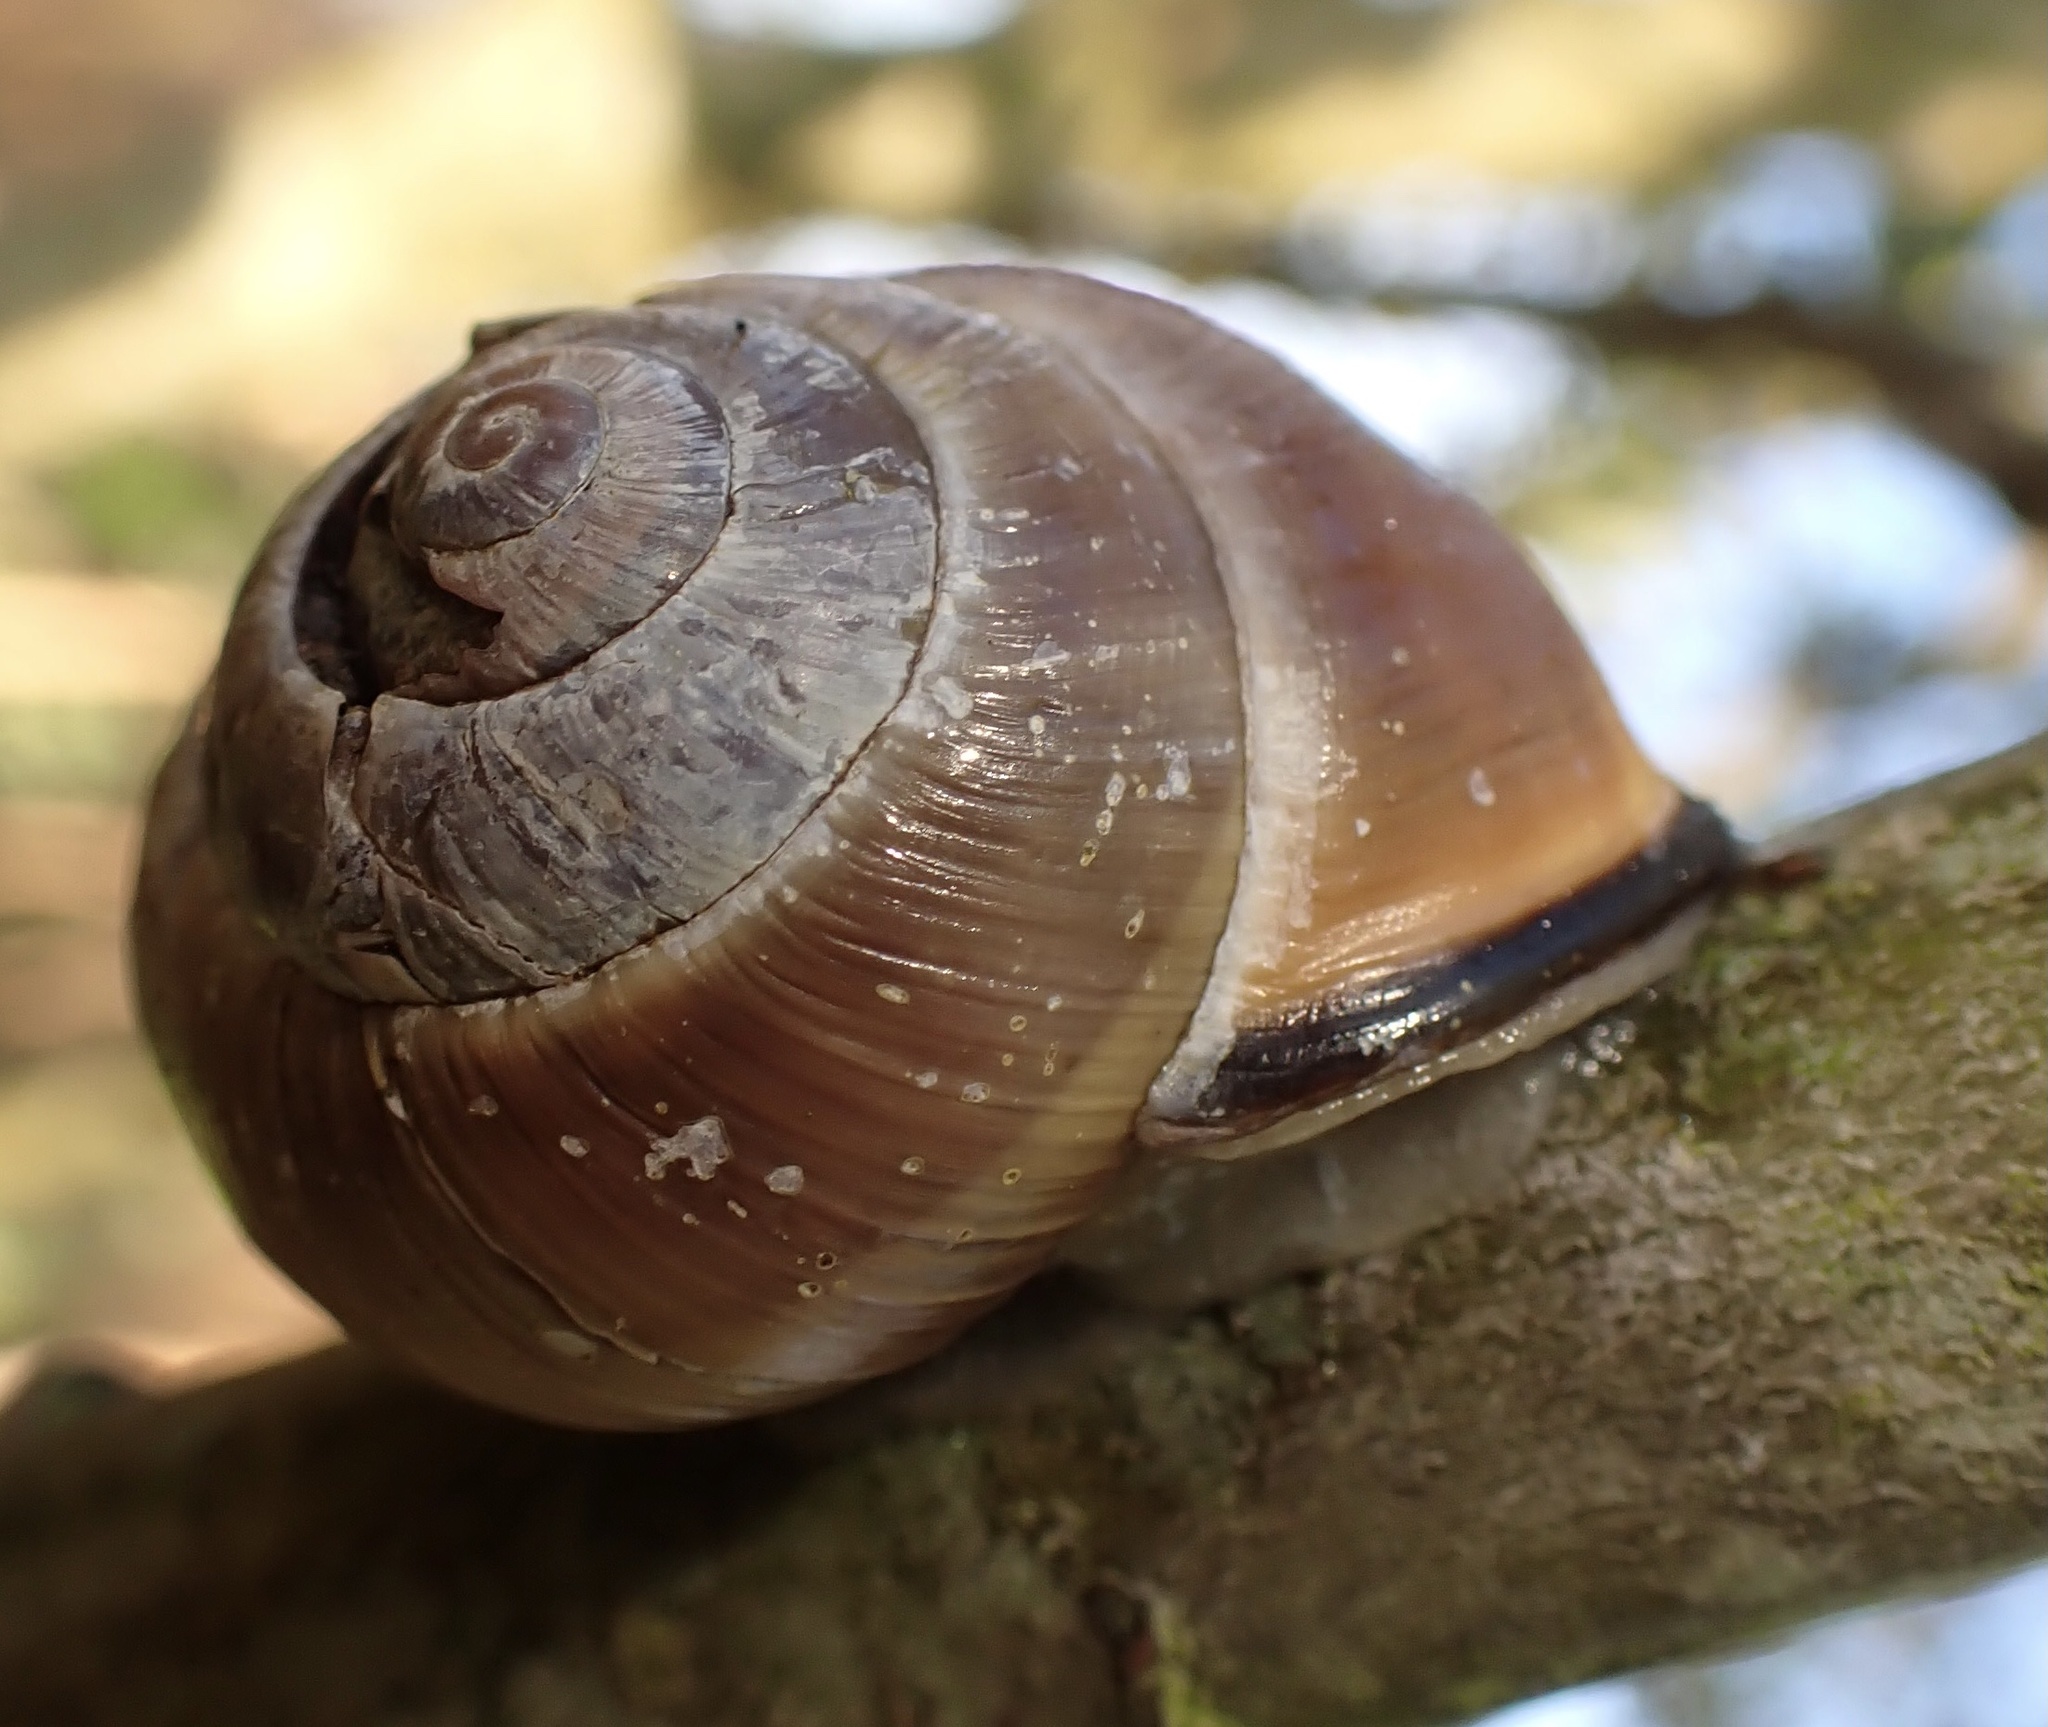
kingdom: Animalia
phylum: Mollusca
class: Gastropoda
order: Stylommatophora
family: Helicidae
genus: Cepaea
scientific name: Cepaea nemoralis
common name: Grovesnail
